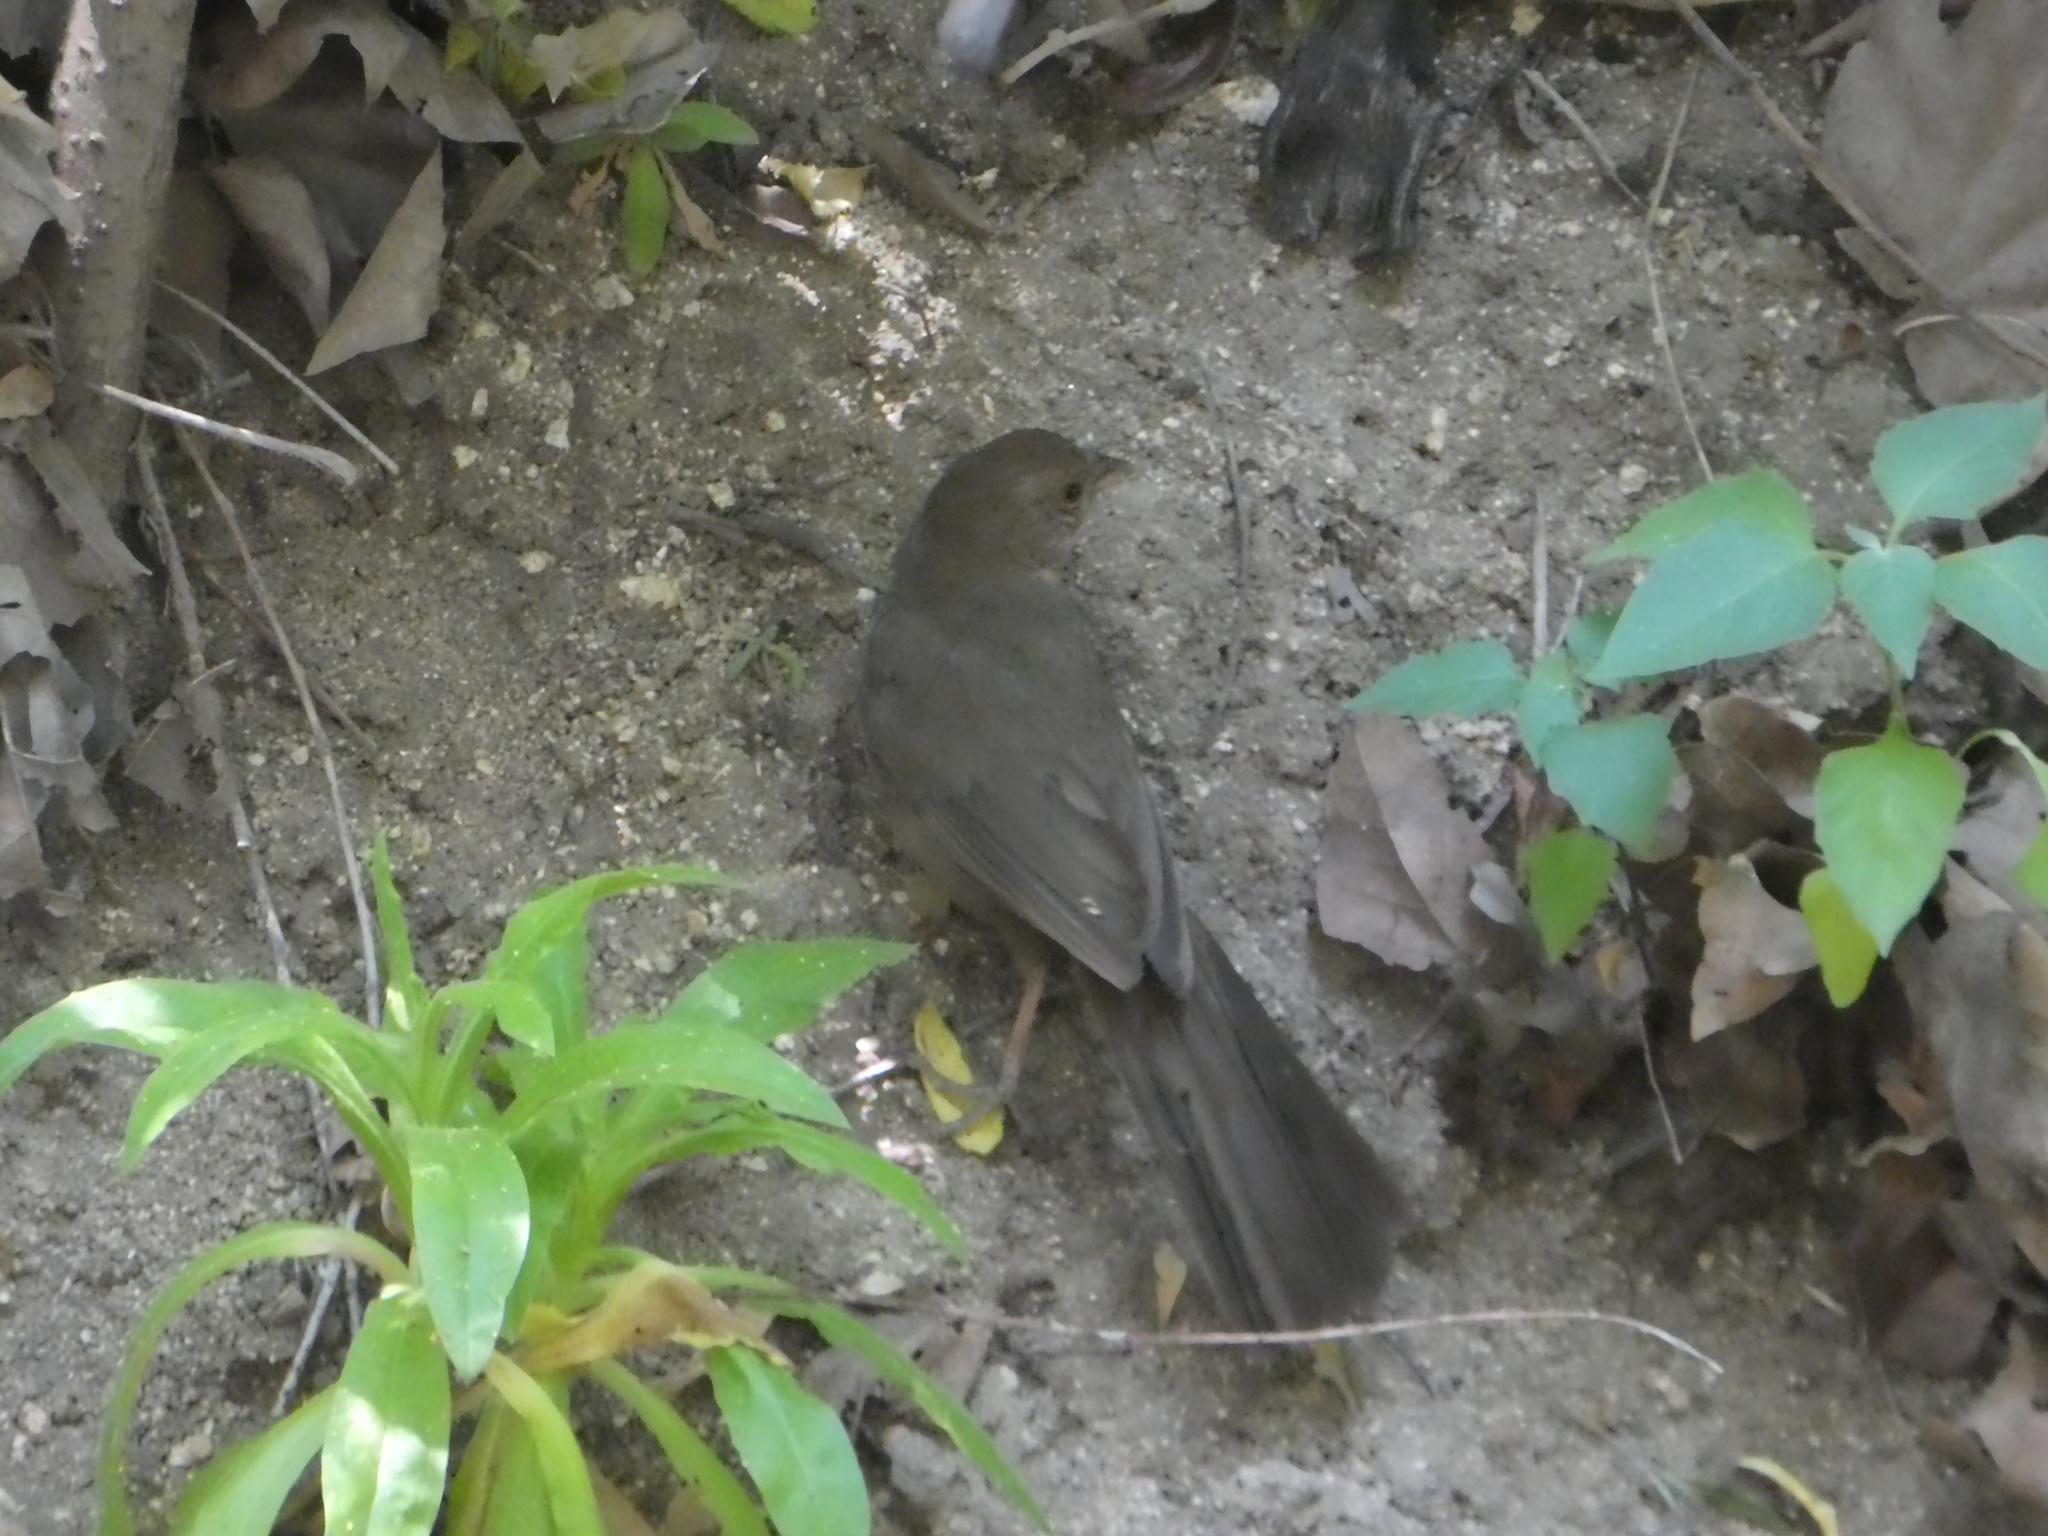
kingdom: Animalia
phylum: Chordata
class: Aves
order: Passeriformes
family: Passerellidae
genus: Melozone
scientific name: Melozone crissalis
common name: California towhee
